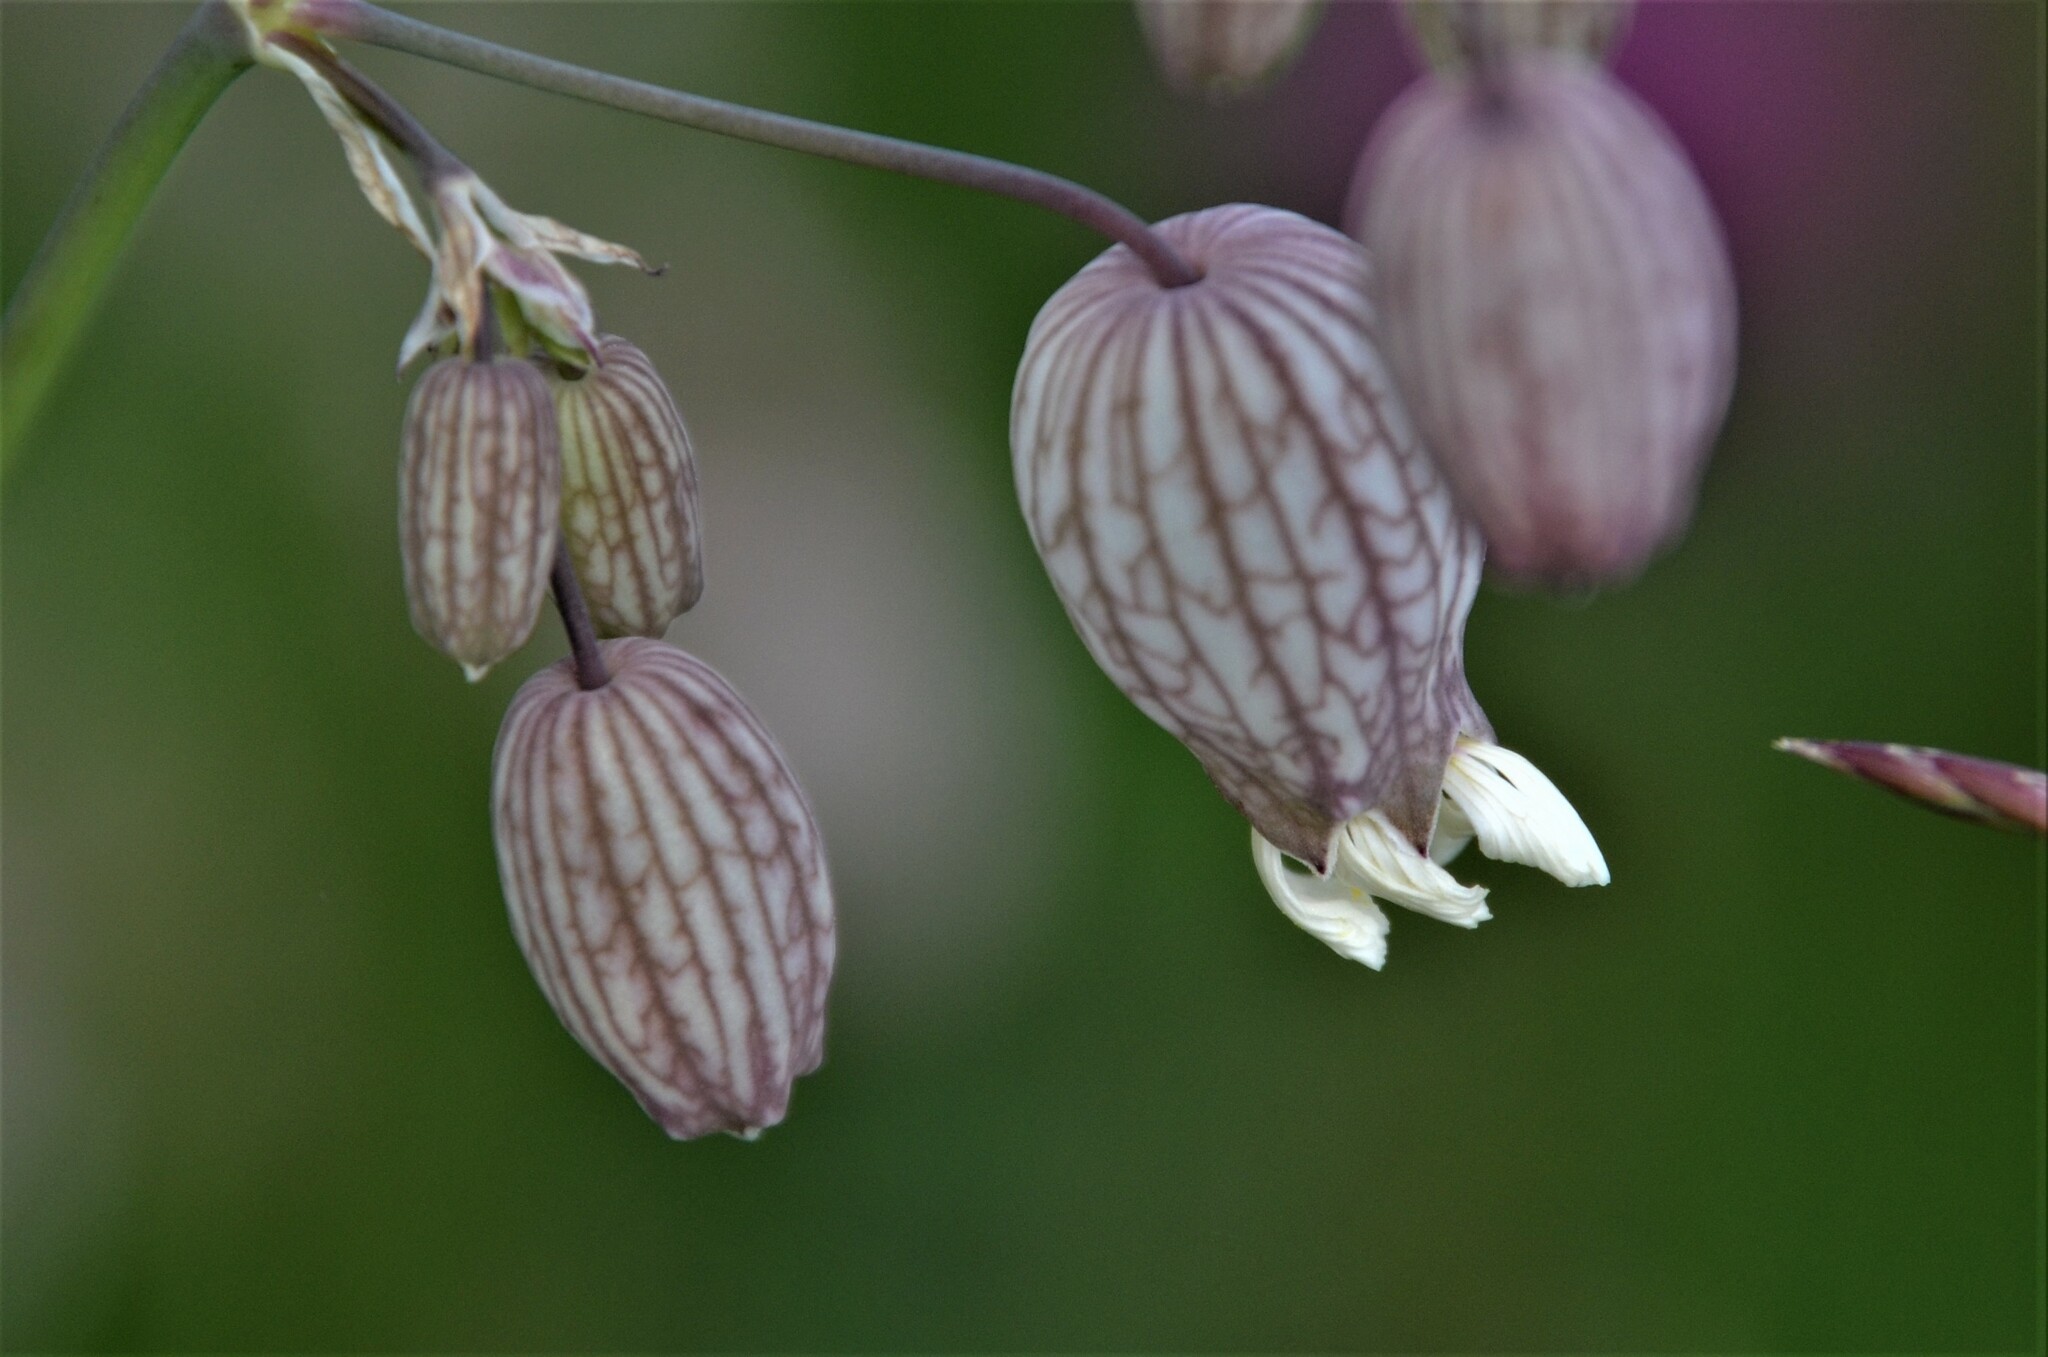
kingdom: Plantae
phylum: Tracheophyta
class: Magnoliopsida
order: Caryophyllales
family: Caryophyllaceae
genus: Silene
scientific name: Silene vulgaris
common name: Bladder campion
